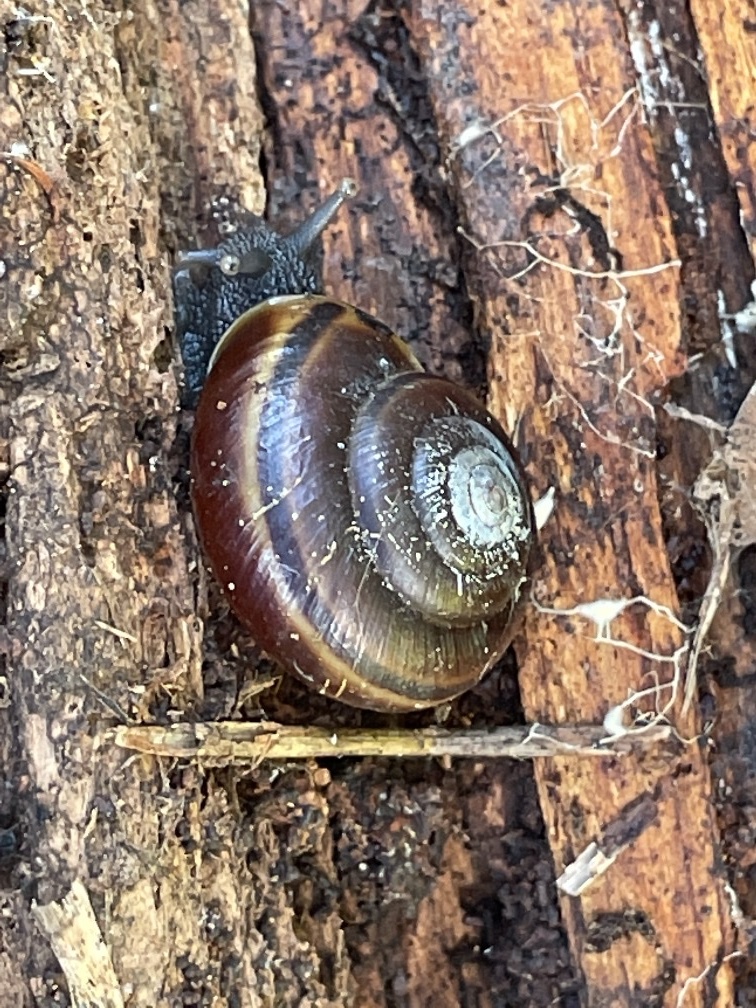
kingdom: Animalia
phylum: Mollusca
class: Gastropoda
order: Stylommatophora
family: Xanthonychidae
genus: Helminthoglypta
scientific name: Helminthoglypta dupetithouarsi
